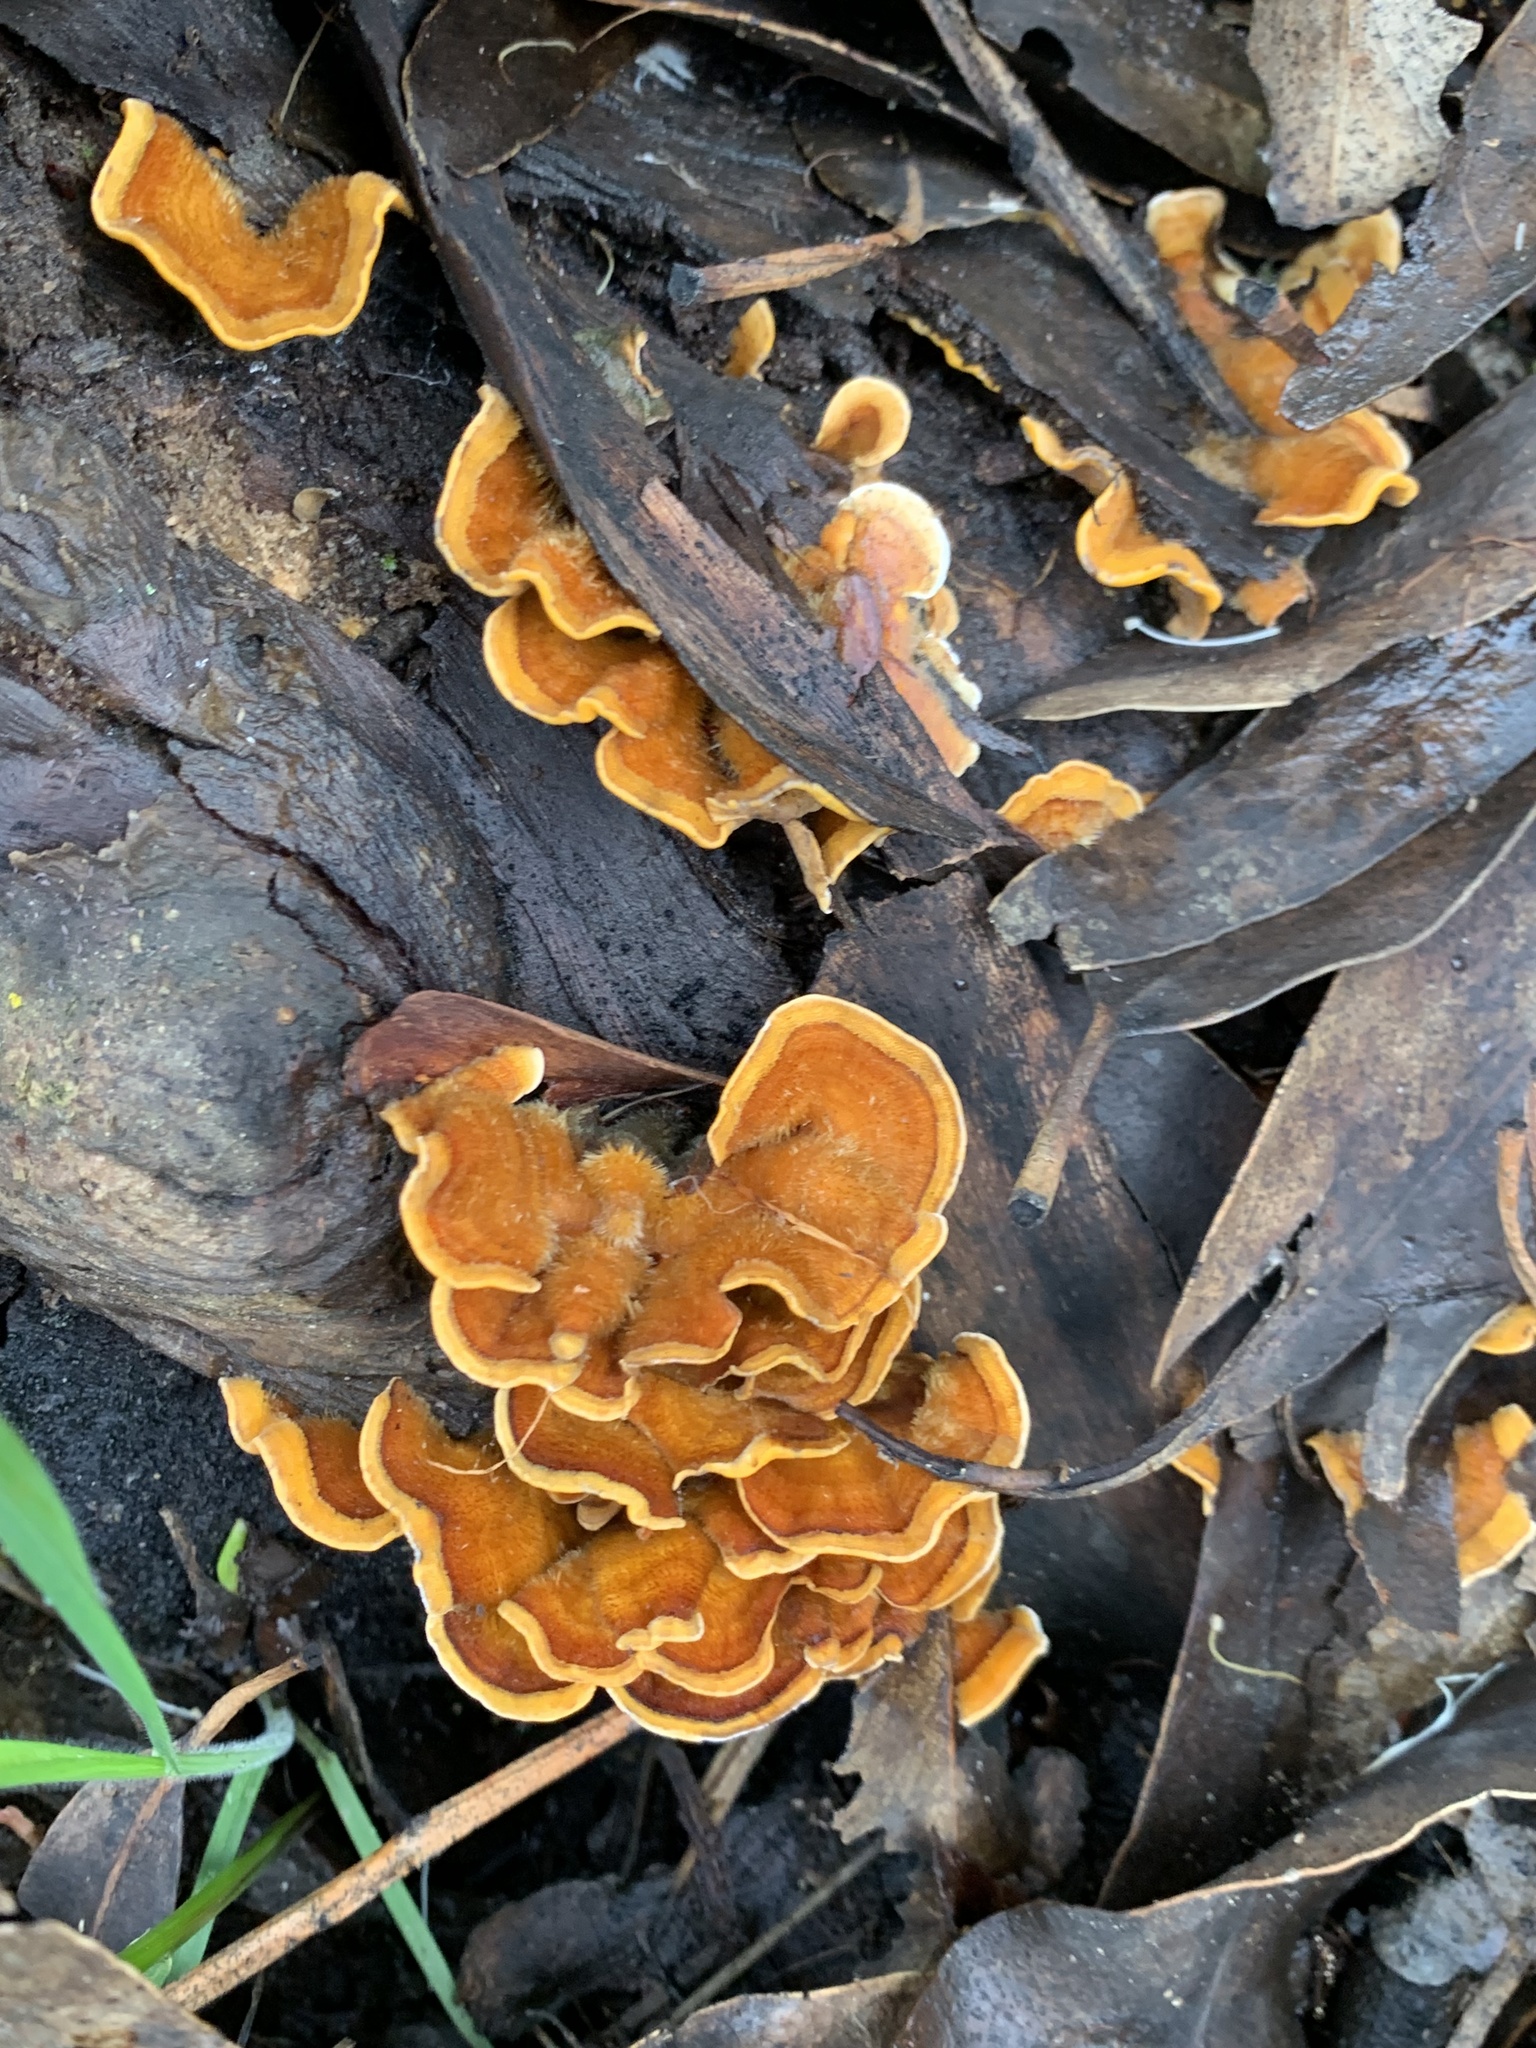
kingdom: Fungi
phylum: Basidiomycota
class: Agaricomycetes
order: Russulales
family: Stereaceae
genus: Stereum
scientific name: Stereum hirsutum
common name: Hairy curtain crust
